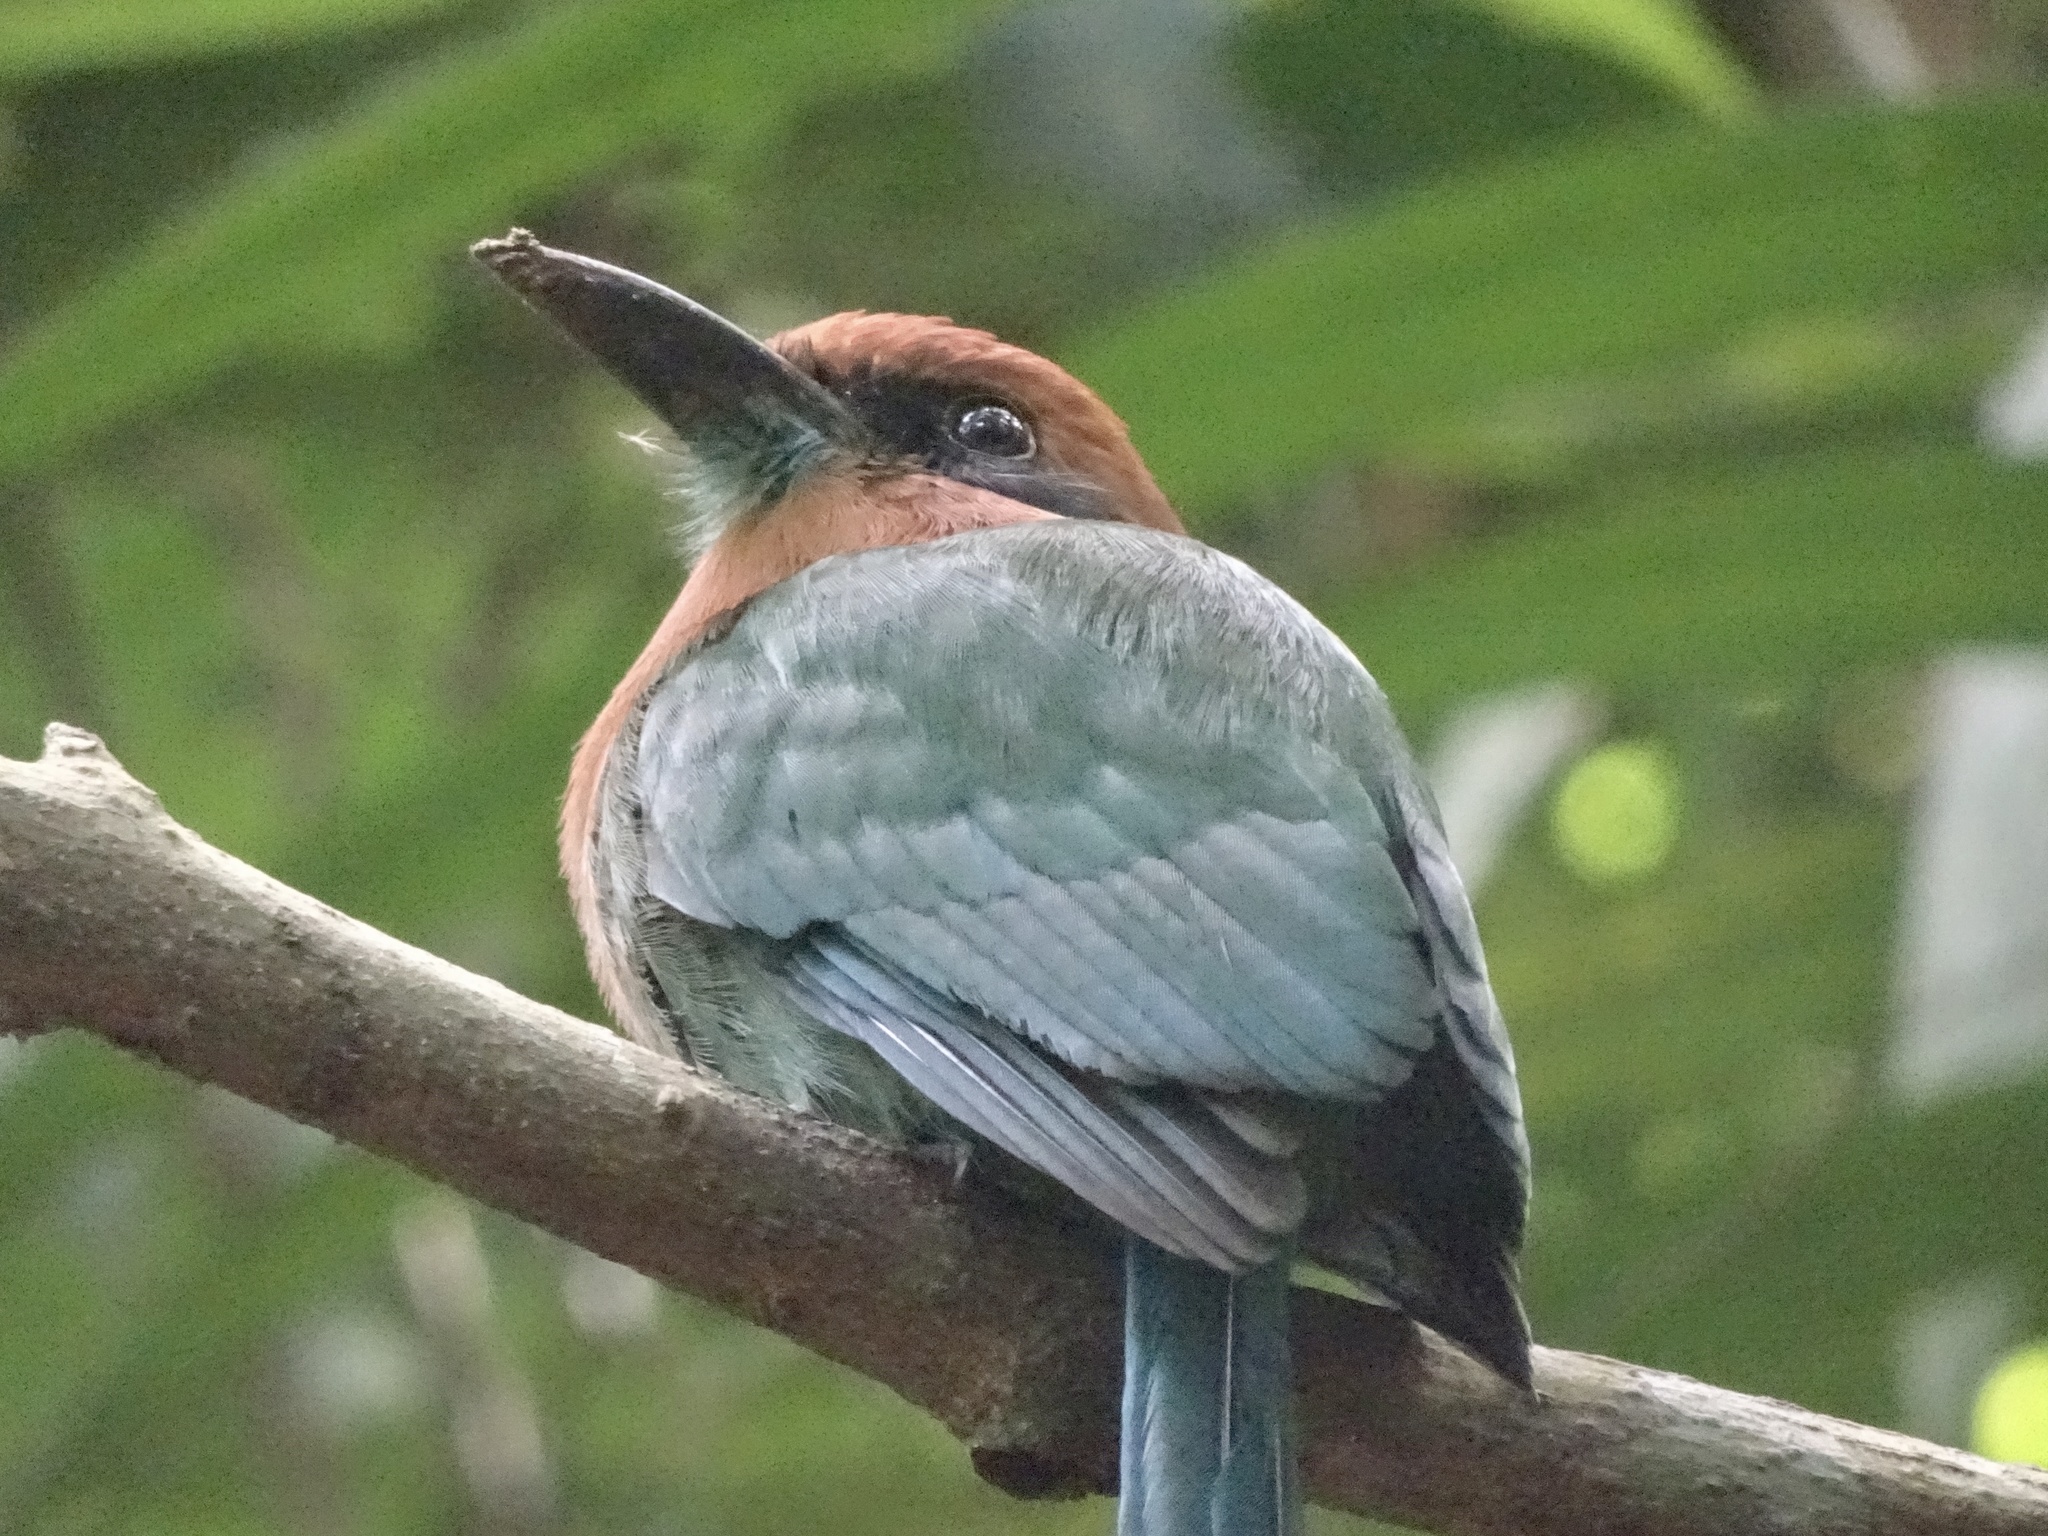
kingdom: Animalia
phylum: Chordata
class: Aves
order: Coraciiformes
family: Momotidae
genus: Electron
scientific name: Electron platyrhynchum
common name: Broad-billed motmot
